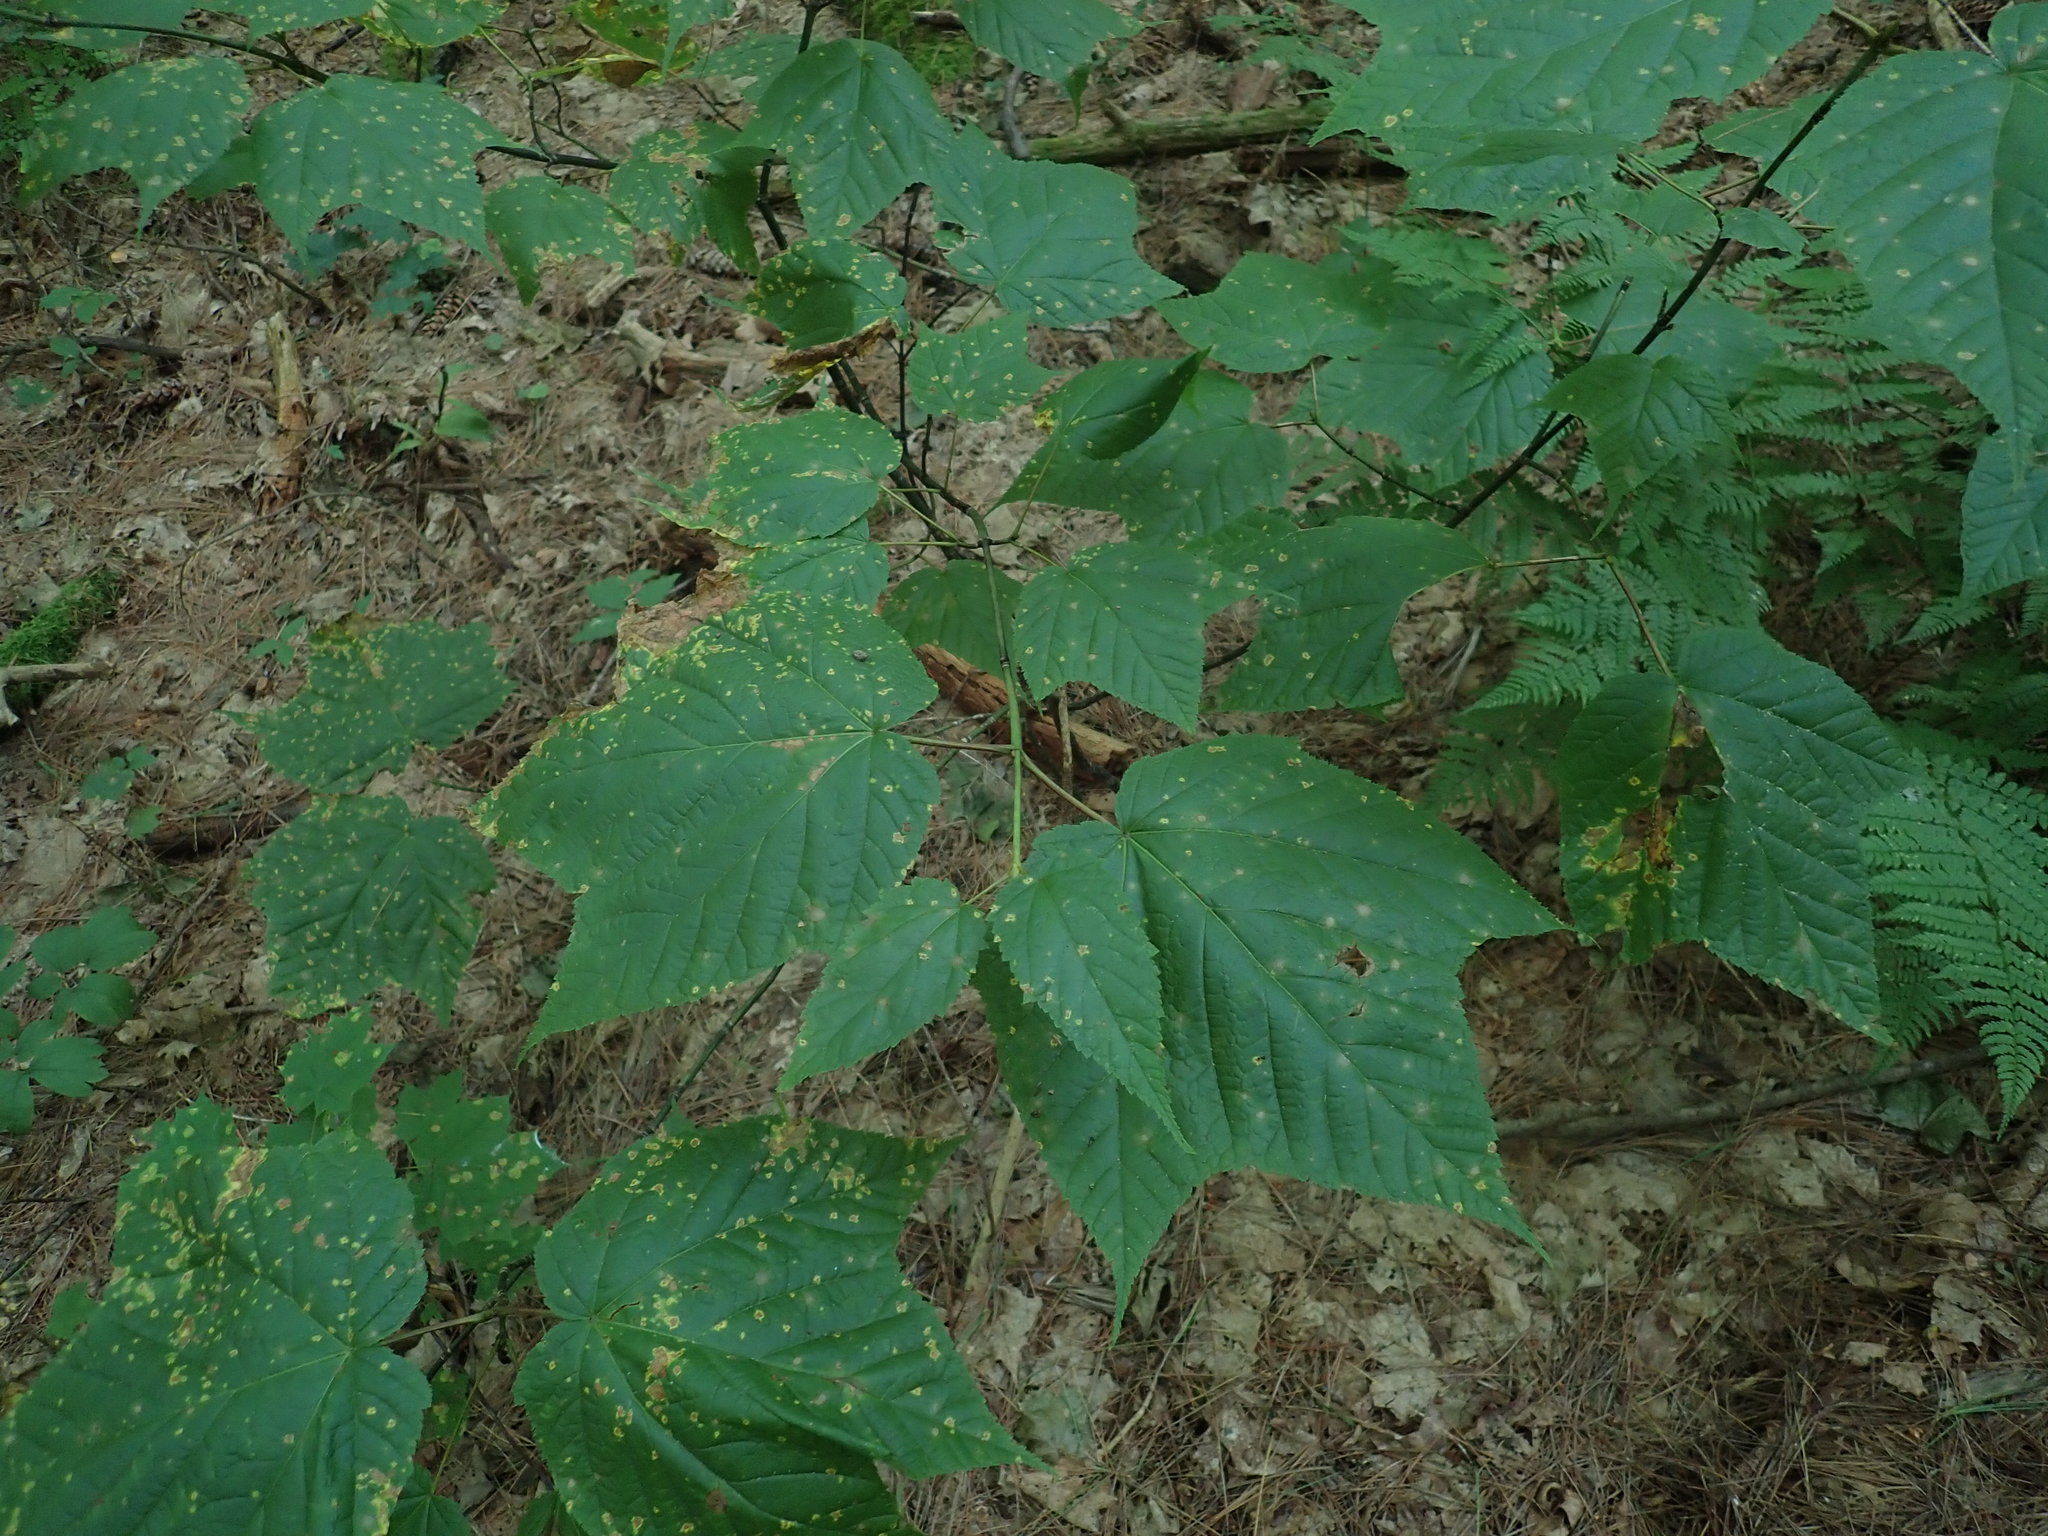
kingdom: Plantae
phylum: Tracheophyta
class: Magnoliopsida
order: Sapindales
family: Sapindaceae
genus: Acer
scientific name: Acer pensylvanicum
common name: Moosewood
